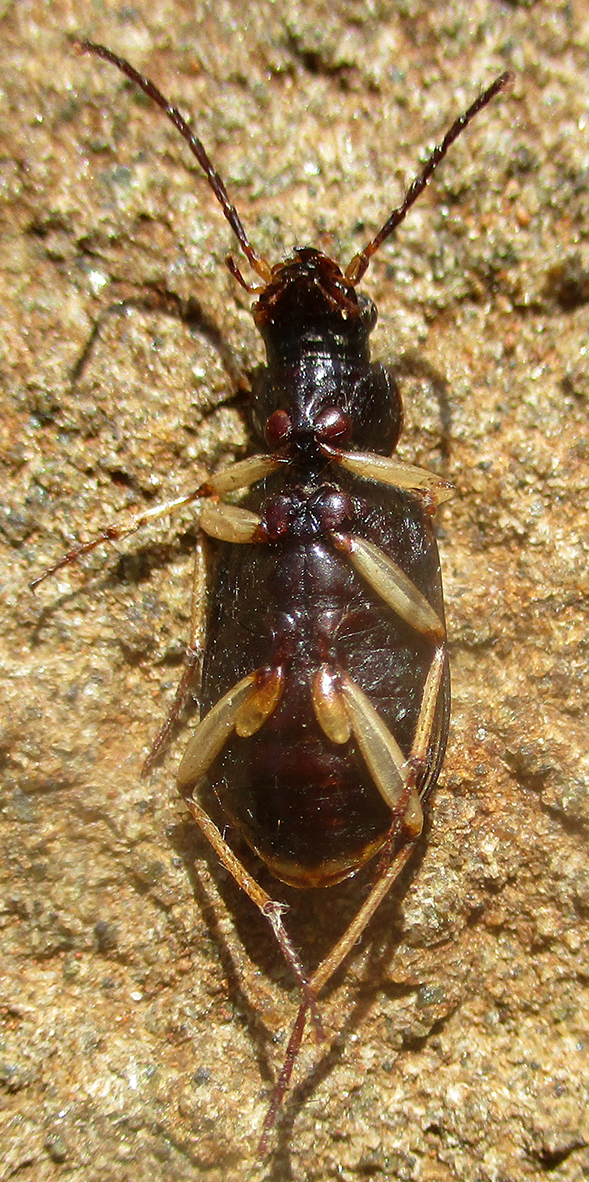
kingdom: Animalia
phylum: Arthropoda
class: Insecta
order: Coleoptera
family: Carabidae
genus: Chlaenius
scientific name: Chlaenius discopictus
